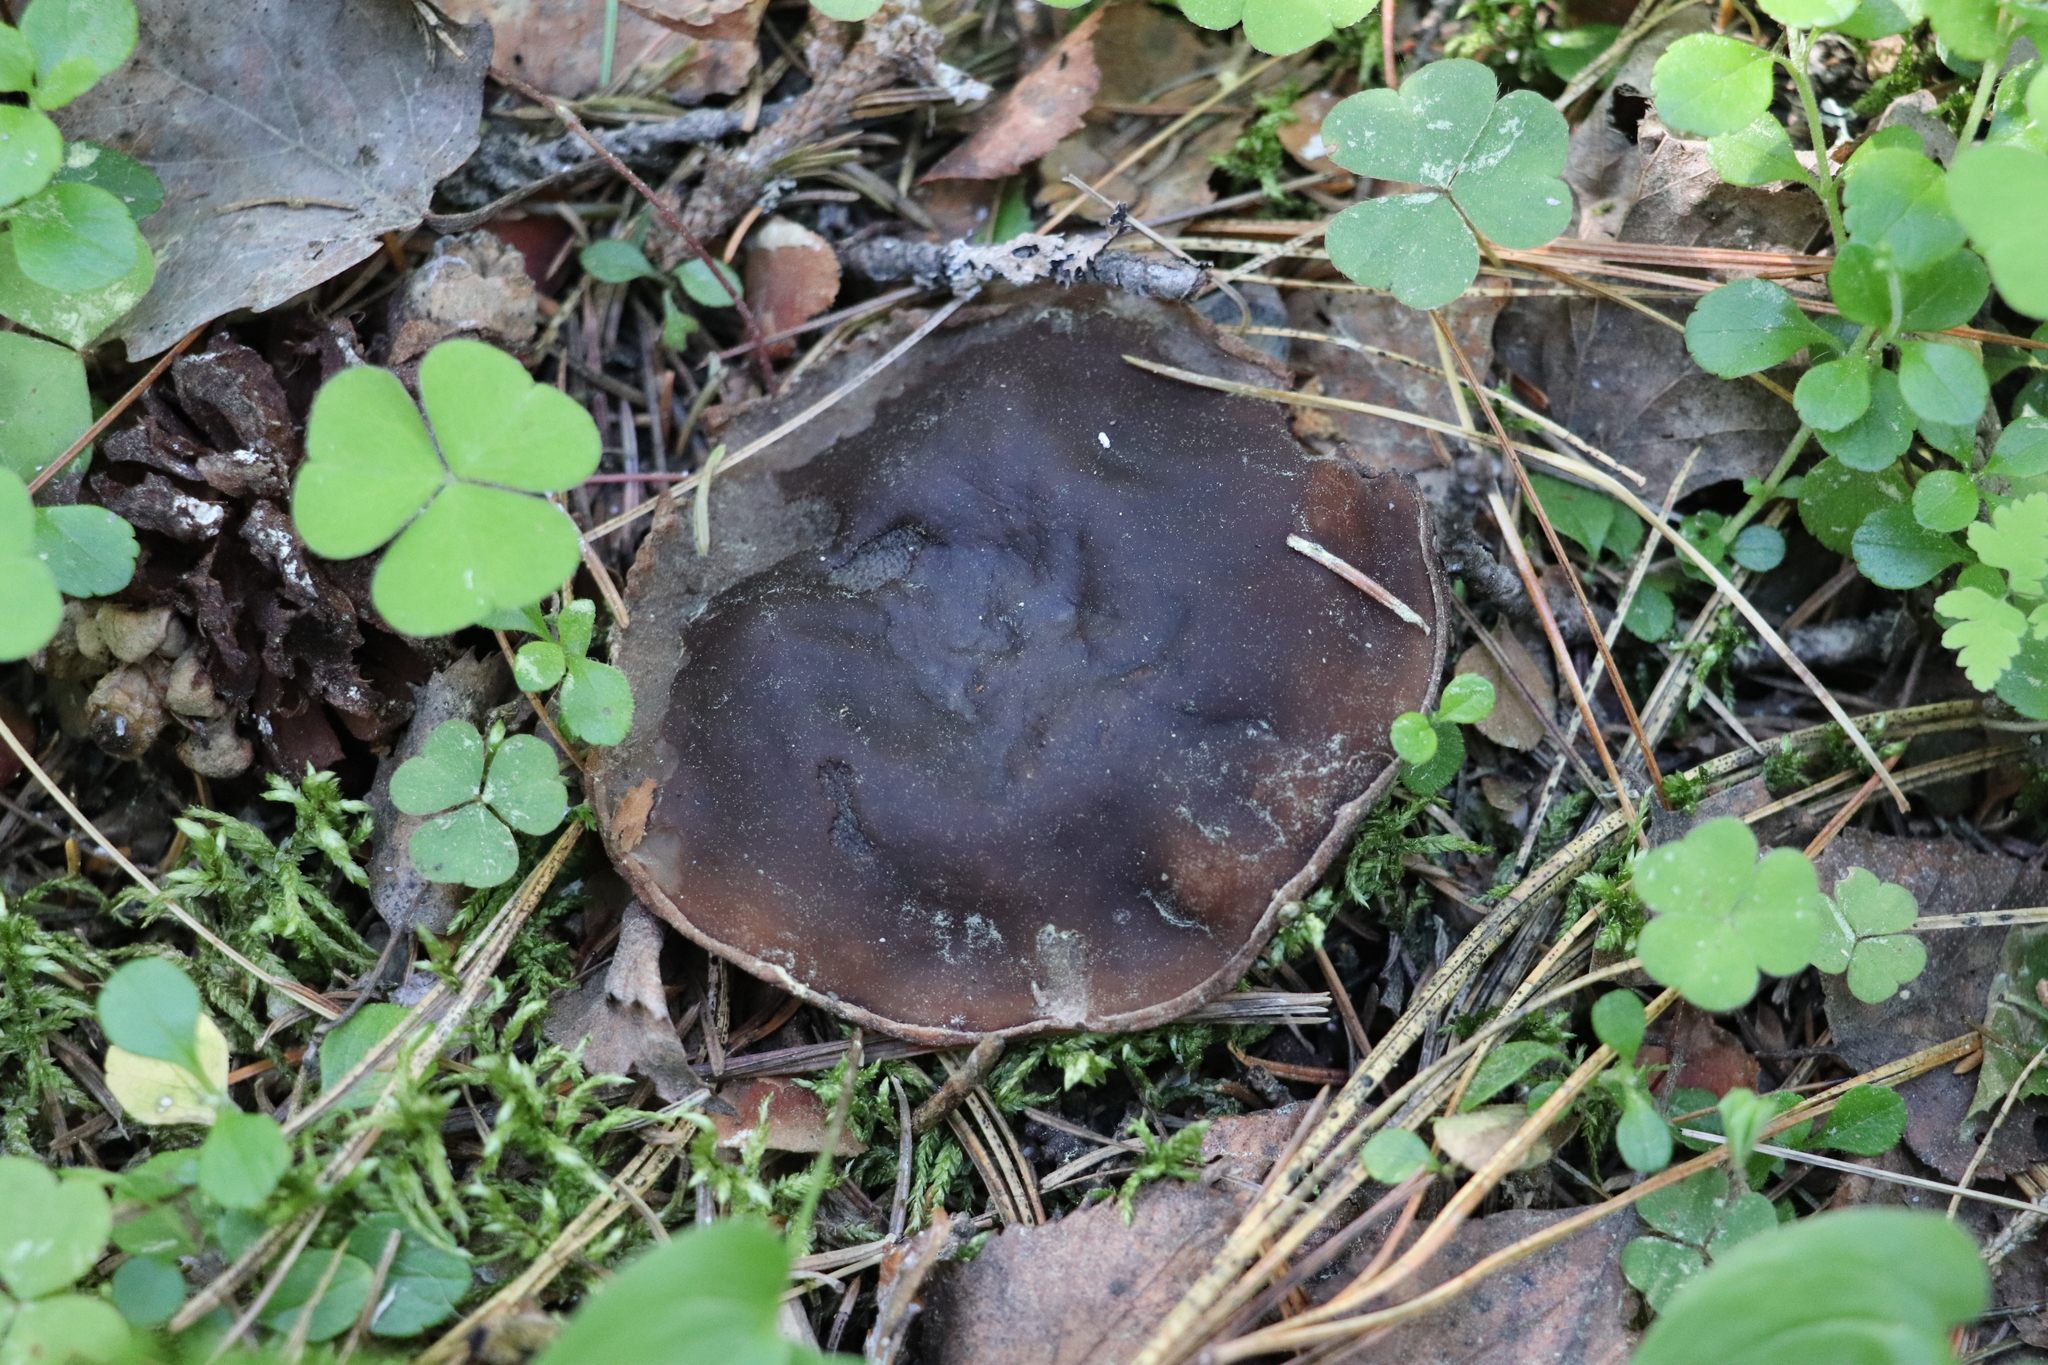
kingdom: Fungi
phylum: Ascomycota
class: Pezizomycetes
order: Pezizales
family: Sarcosomataceae
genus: Sarcosoma
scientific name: Sarcosoma globosum
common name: Charred-pancake cup
